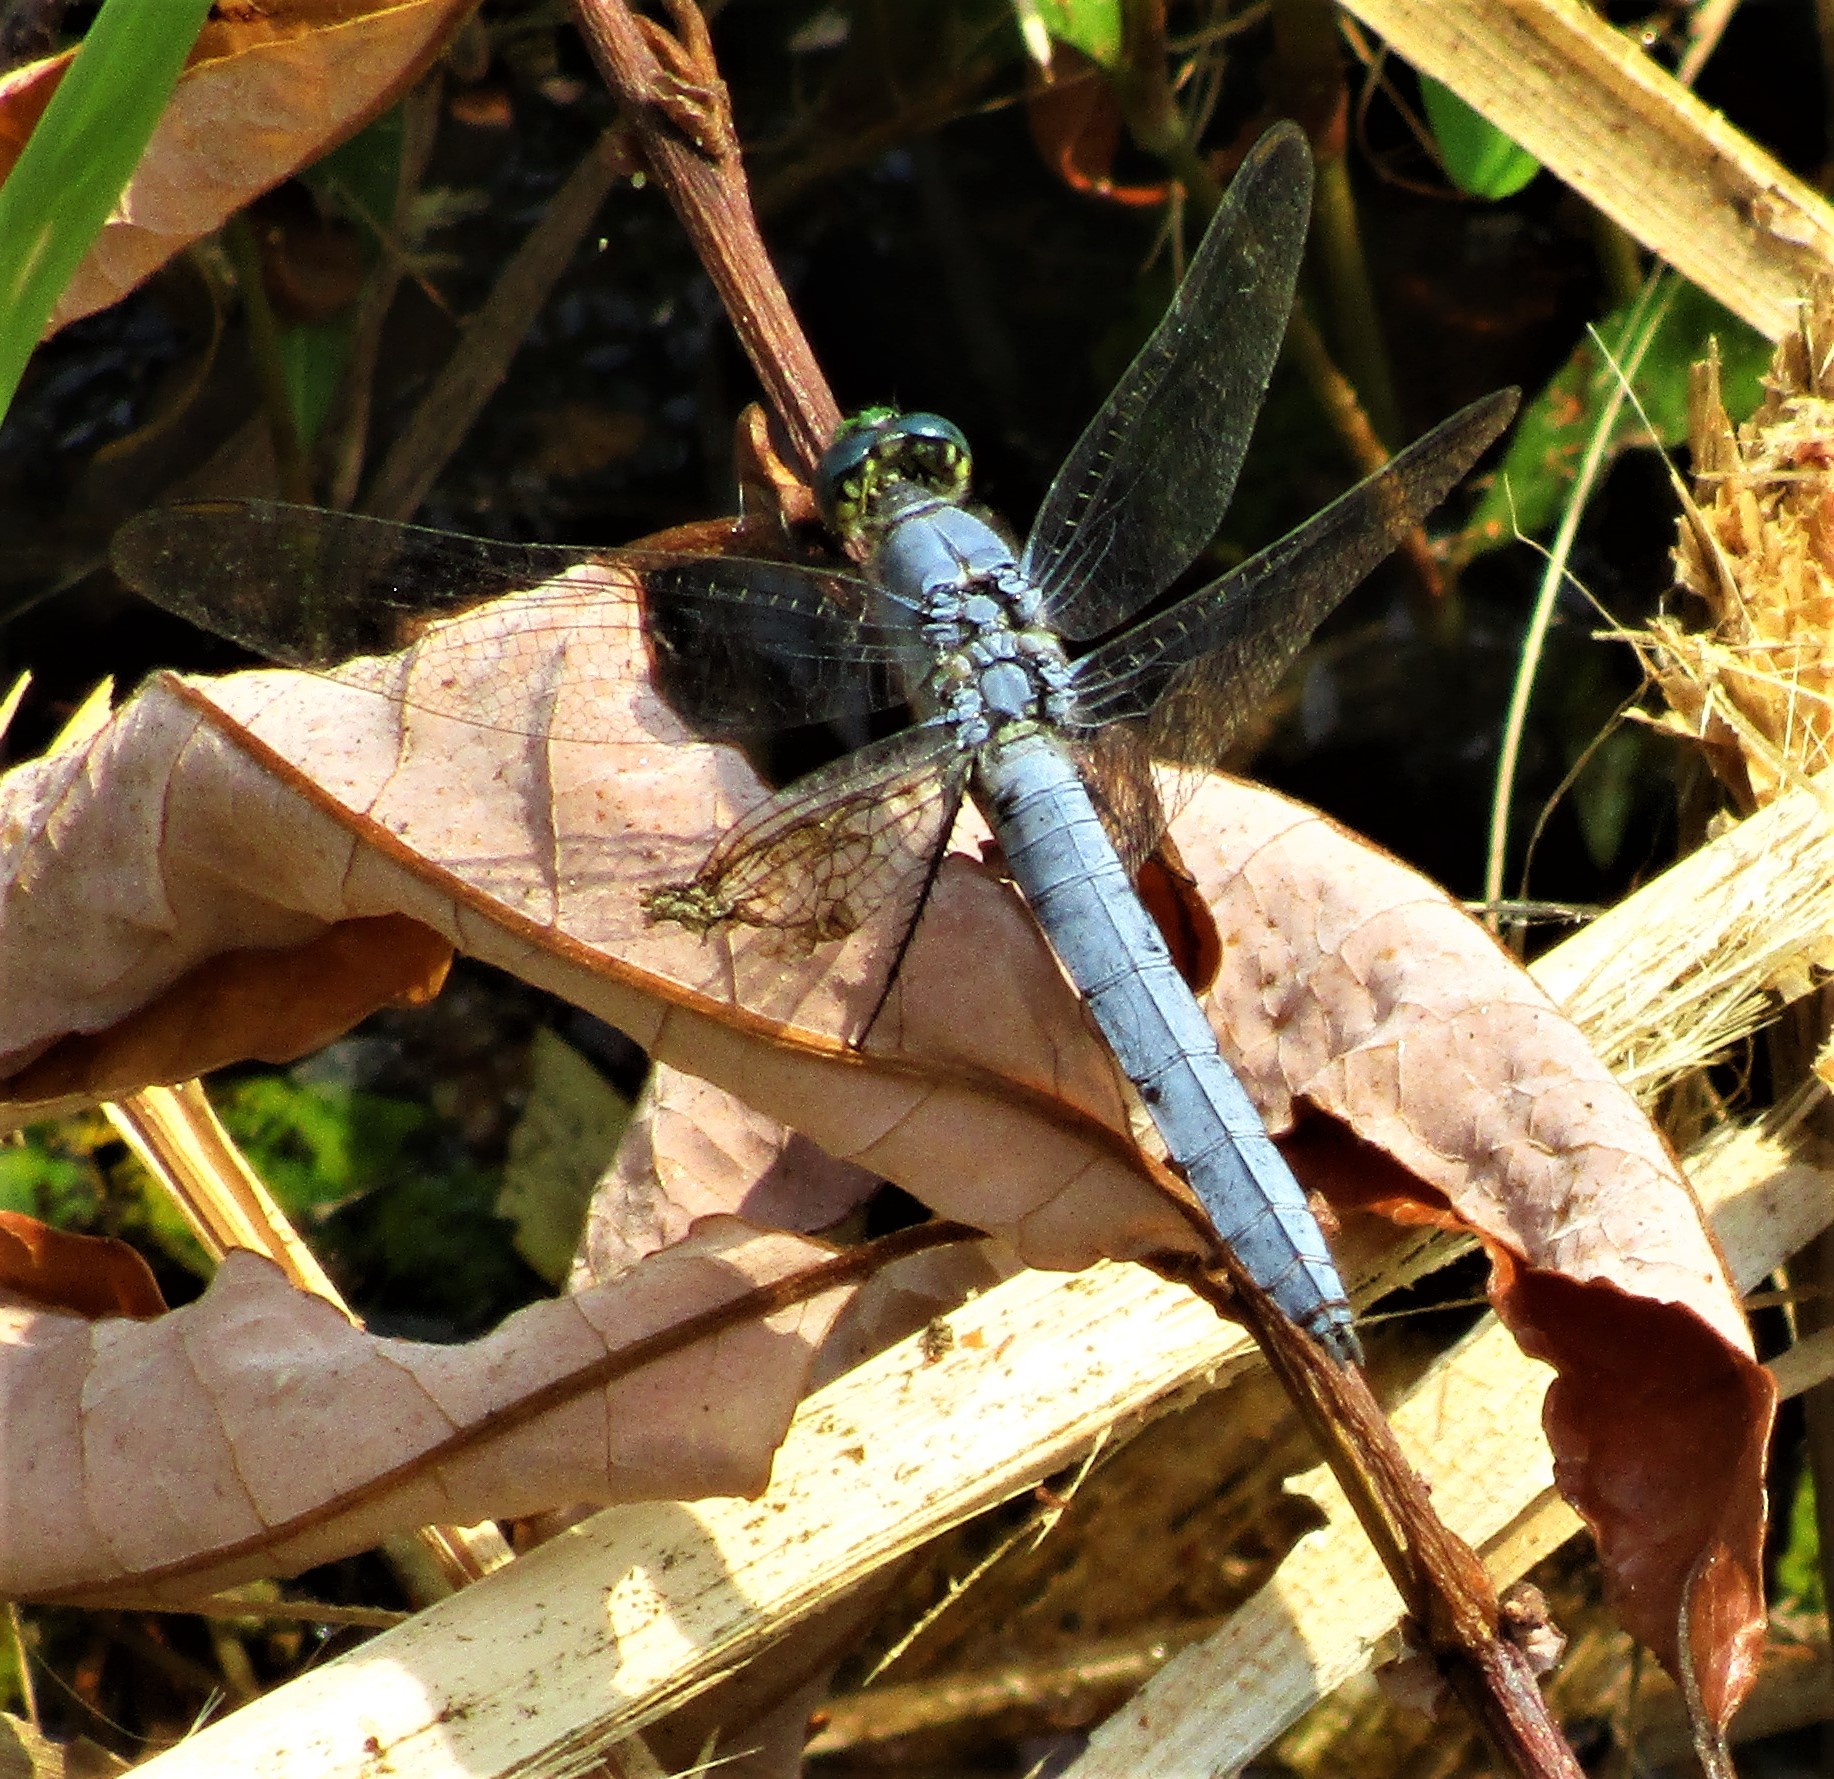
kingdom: Animalia
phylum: Arthropoda
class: Insecta
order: Odonata
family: Libellulidae
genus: Erythemis
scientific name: Erythemis collocata
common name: Western pondhawk
